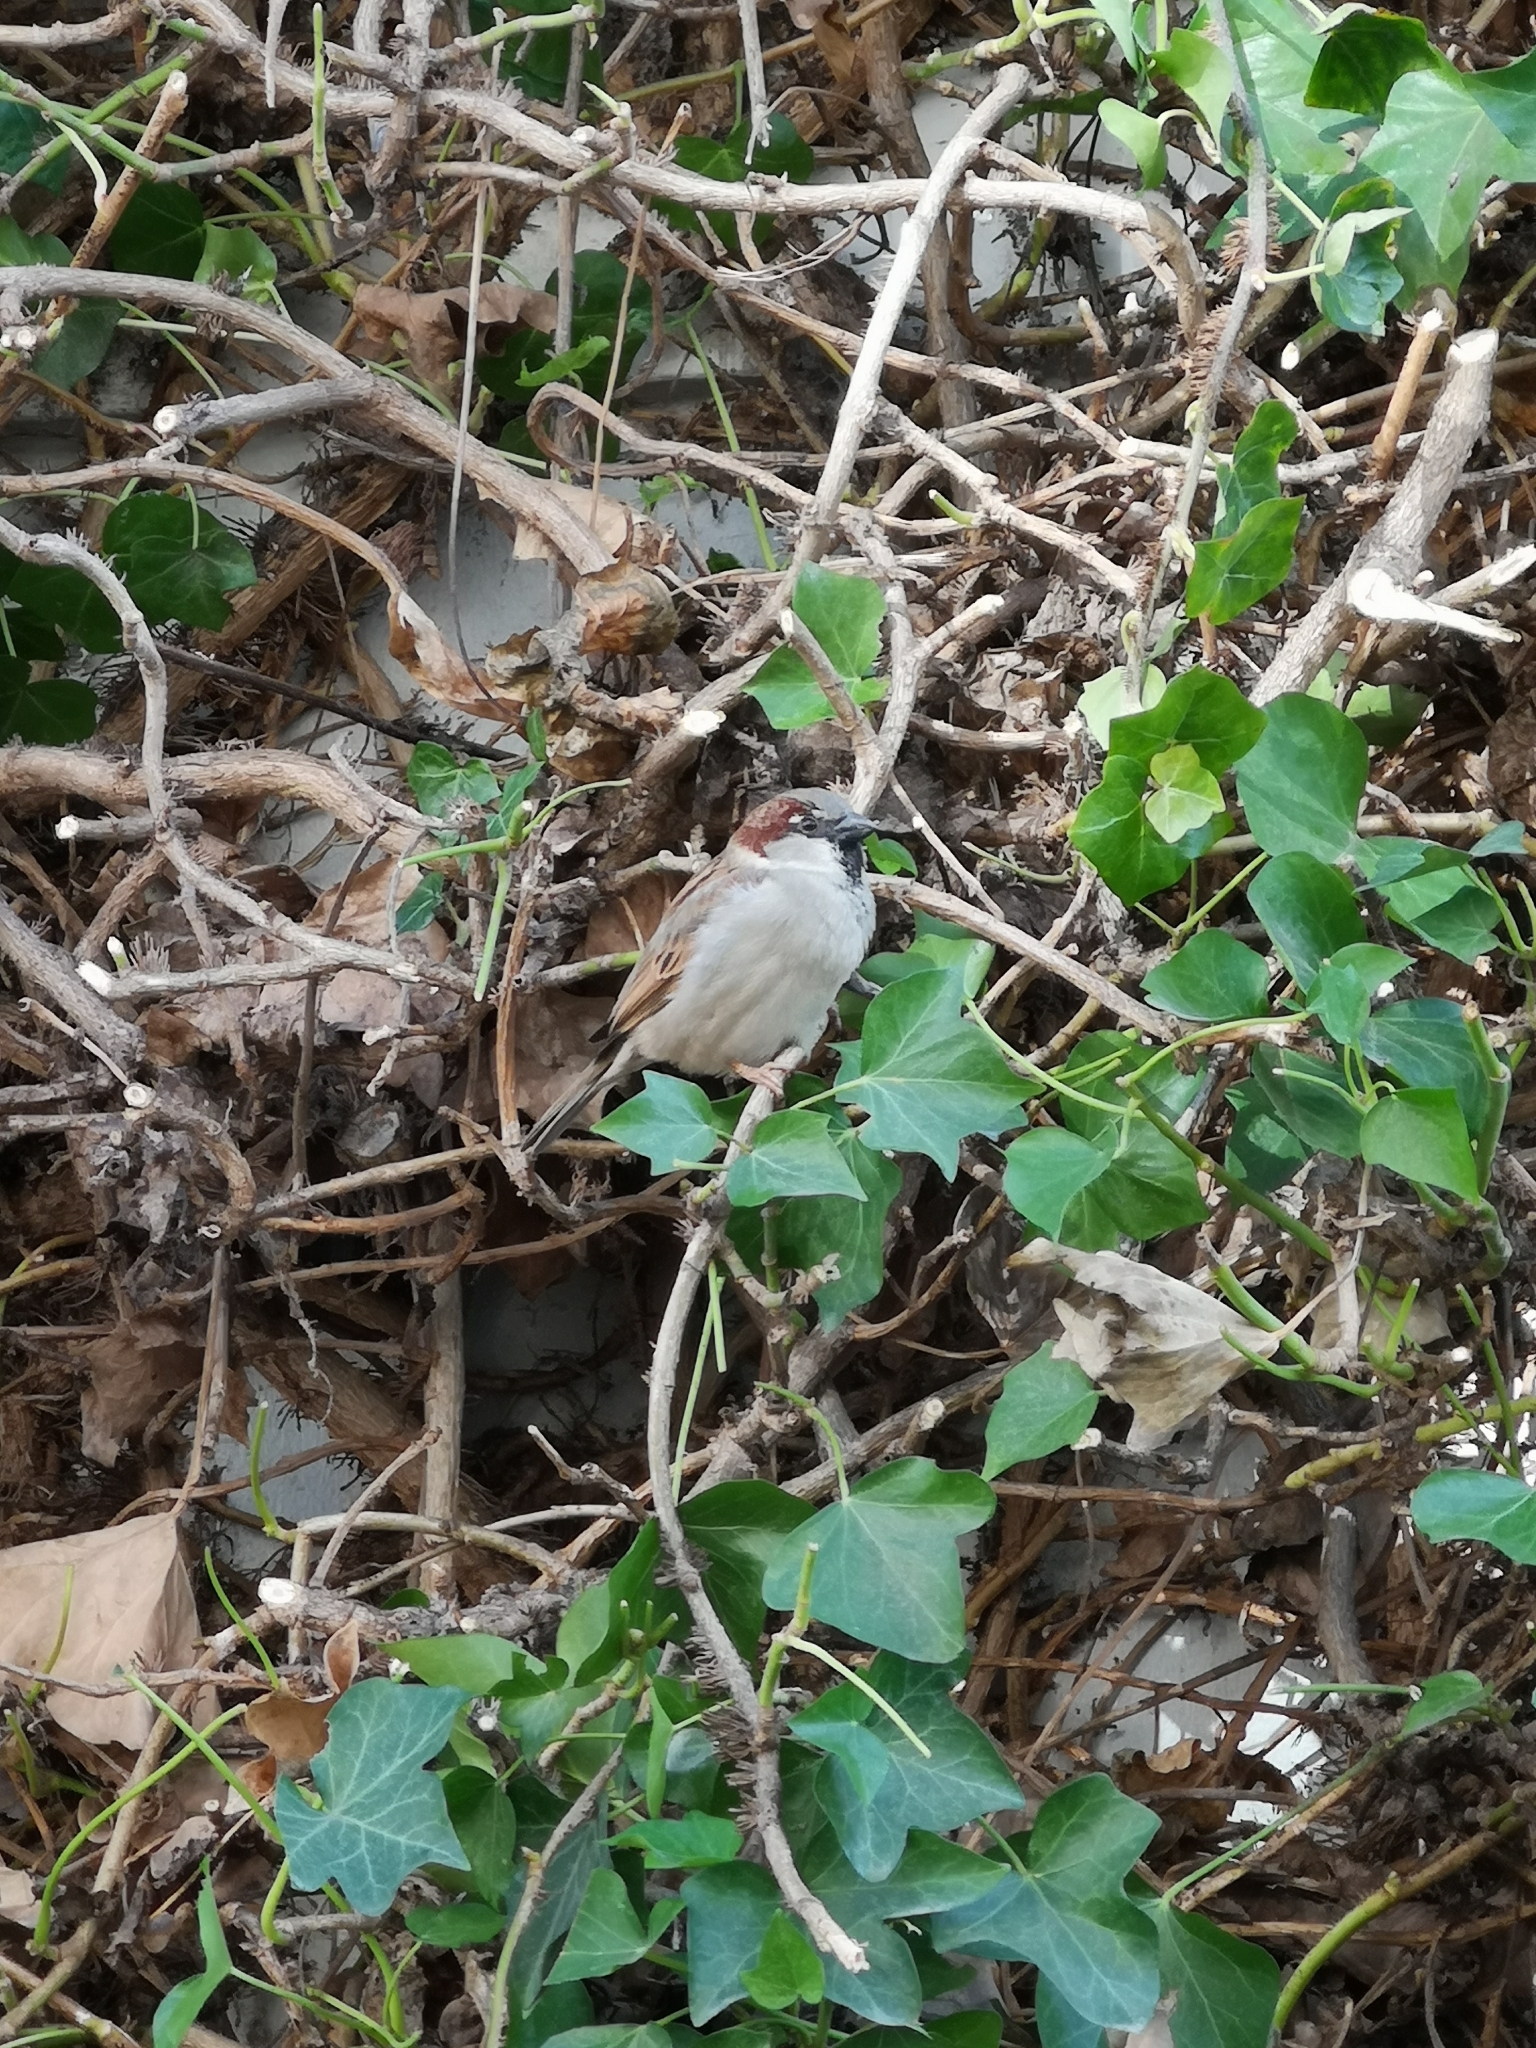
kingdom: Animalia
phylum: Chordata
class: Aves
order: Passeriformes
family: Passeridae
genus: Passer
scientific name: Passer domesticus
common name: House sparrow
